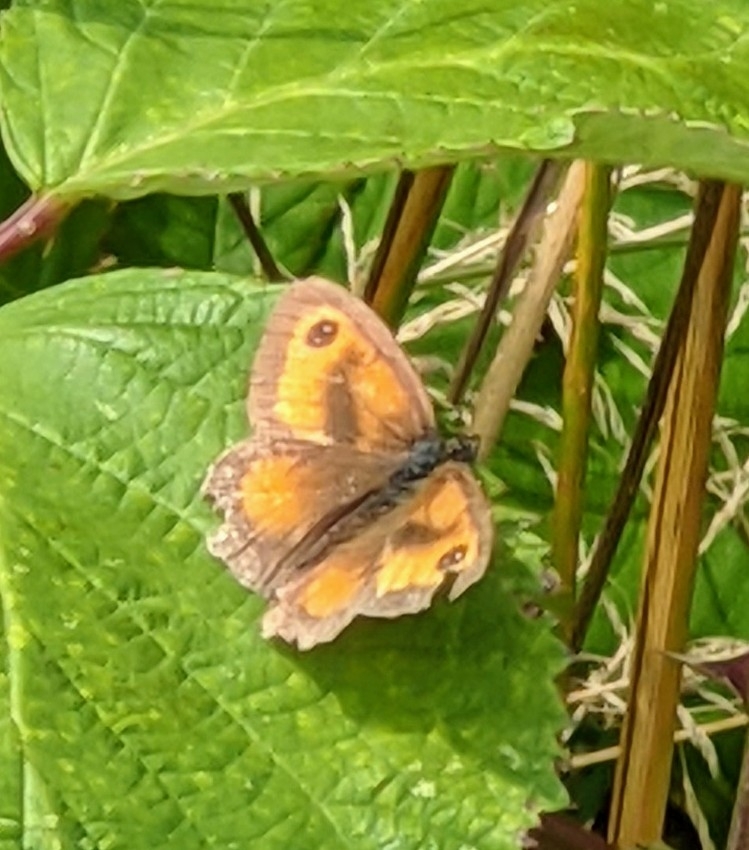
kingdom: Animalia
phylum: Arthropoda
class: Insecta
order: Lepidoptera
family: Nymphalidae
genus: Pyronia
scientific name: Pyronia tithonus
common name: Gatekeeper
